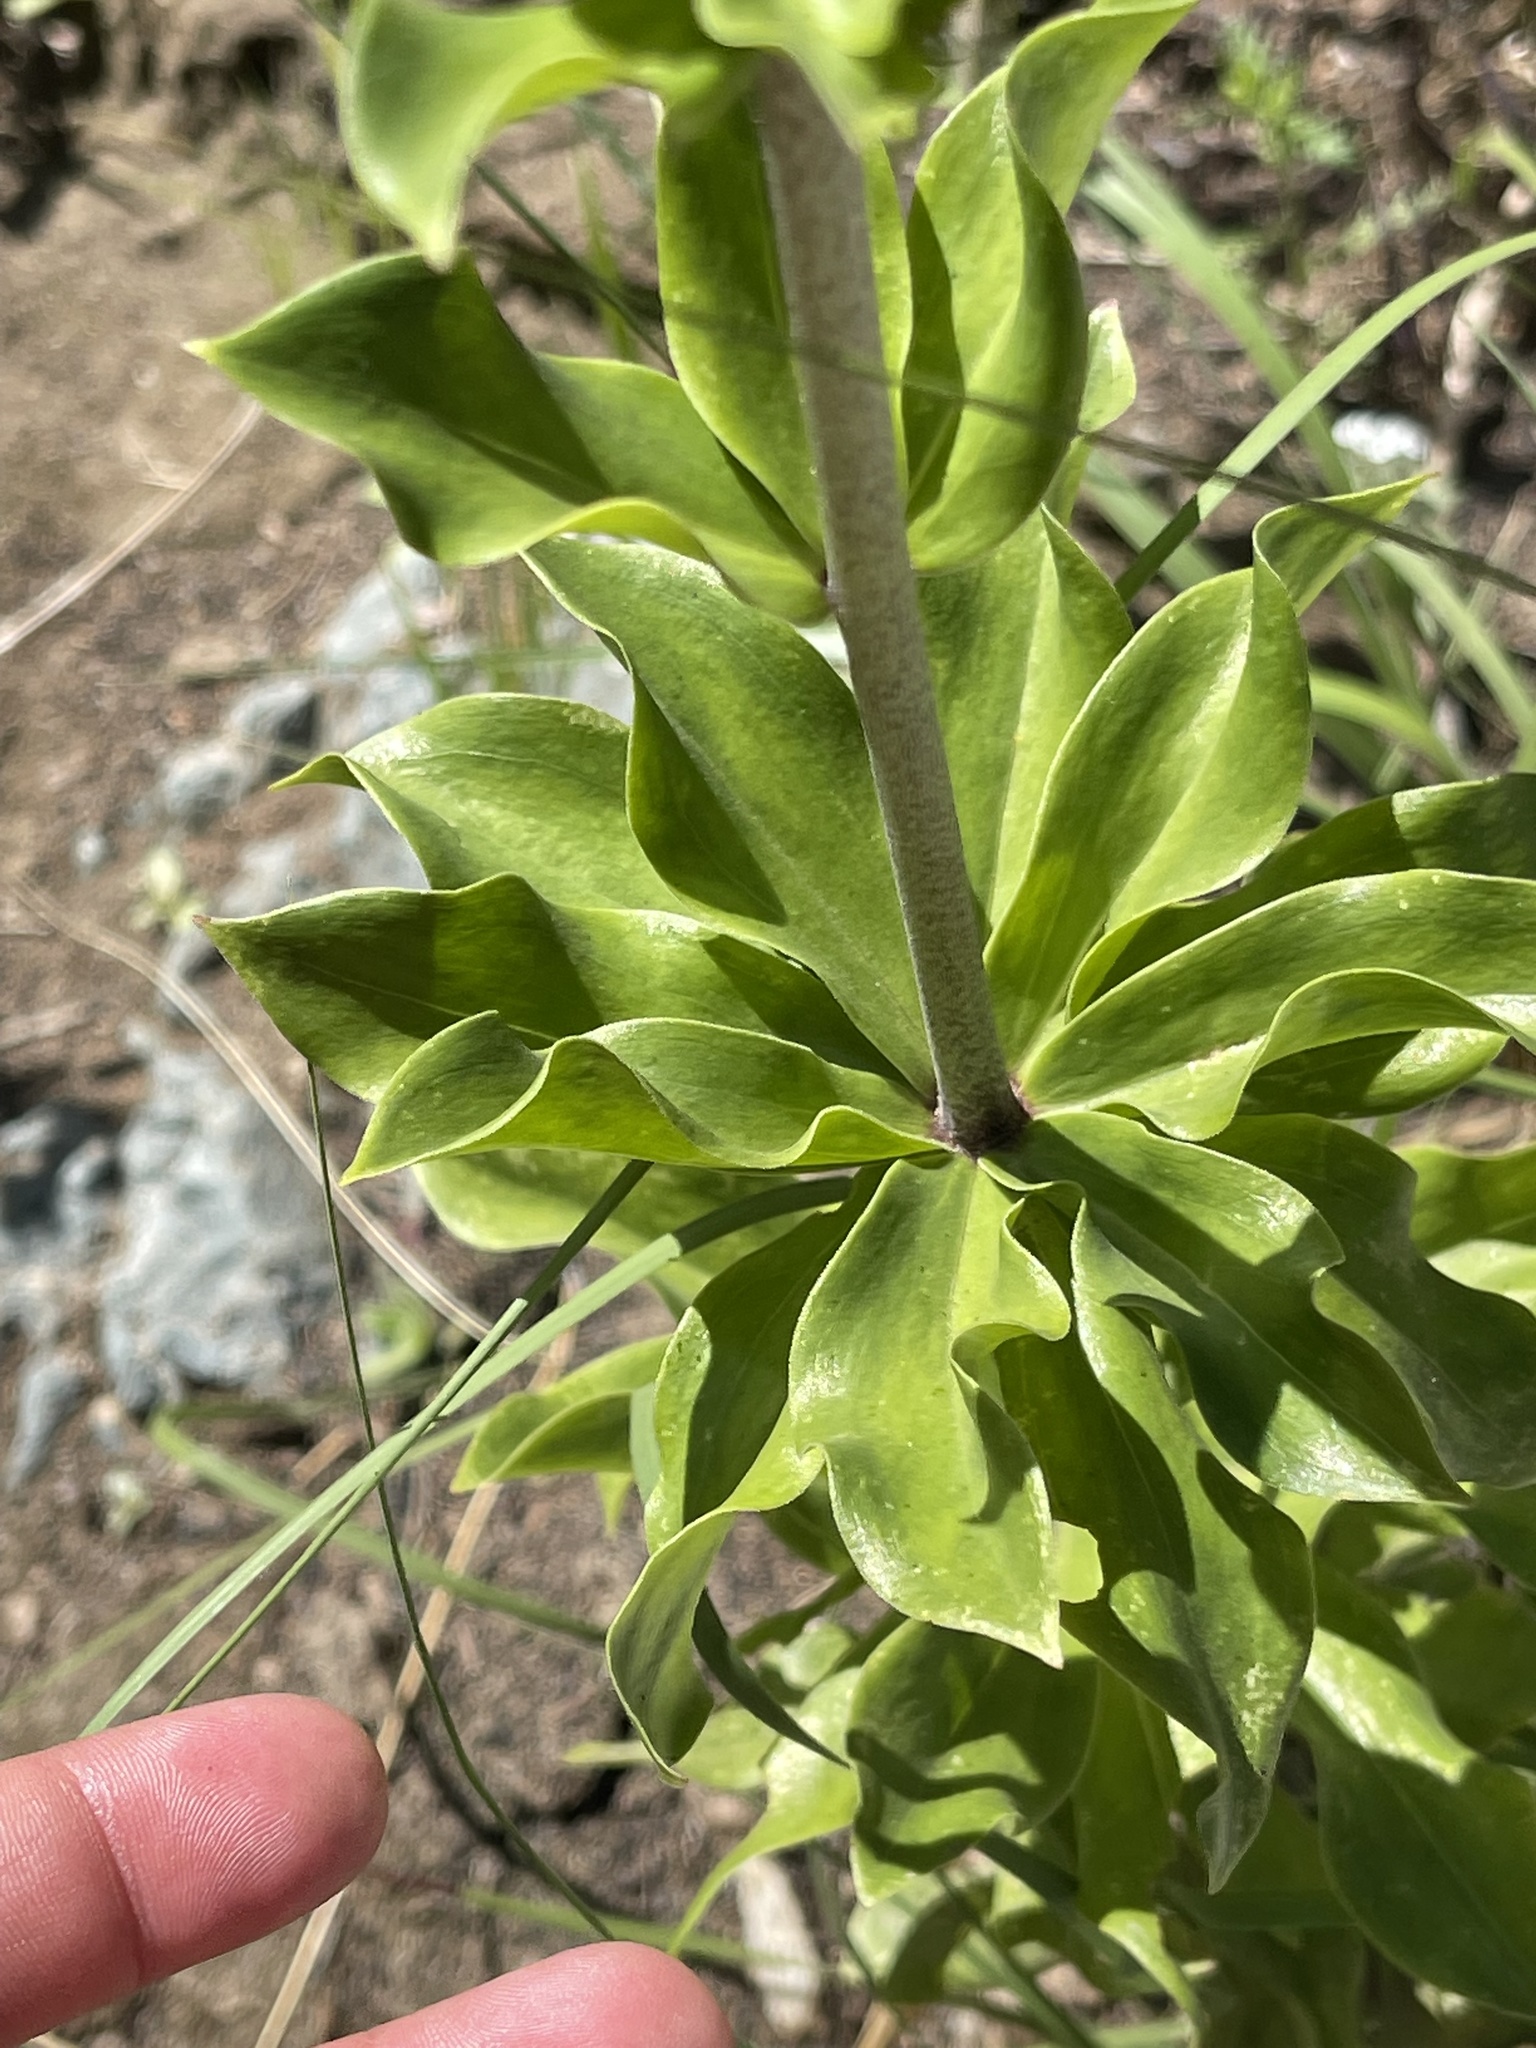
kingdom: Plantae
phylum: Tracheophyta
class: Liliopsida
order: Liliales
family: Liliaceae
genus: Lilium
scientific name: Lilium humboldtii
